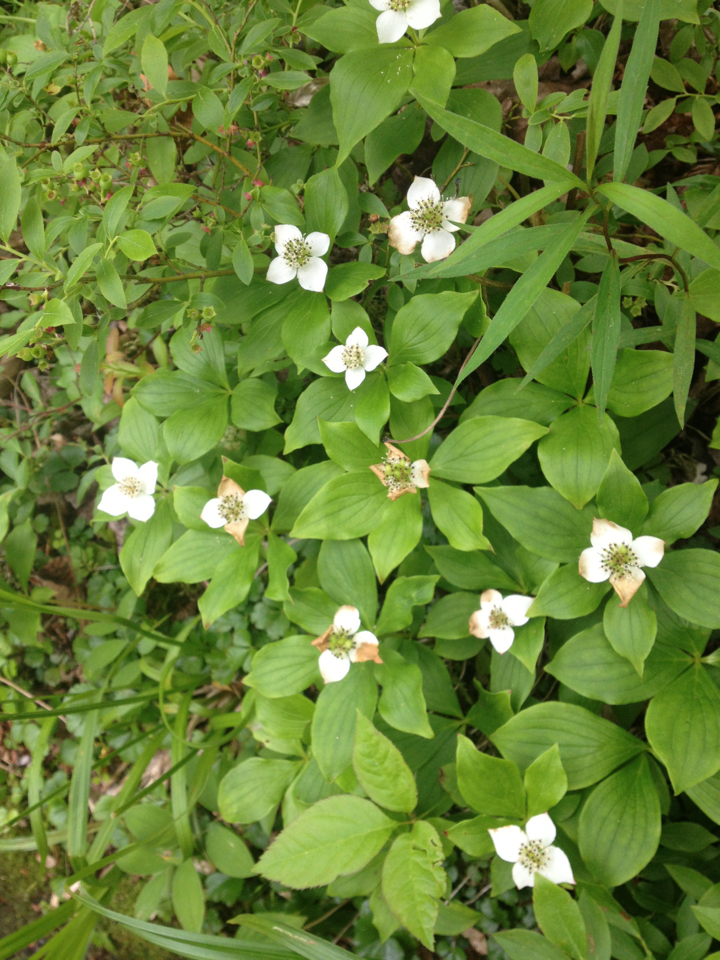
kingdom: Plantae
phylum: Tracheophyta
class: Magnoliopsida
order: Cornales
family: Cornaceae
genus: Cornus
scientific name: Cornus canadensis
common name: Creeping dogwood
